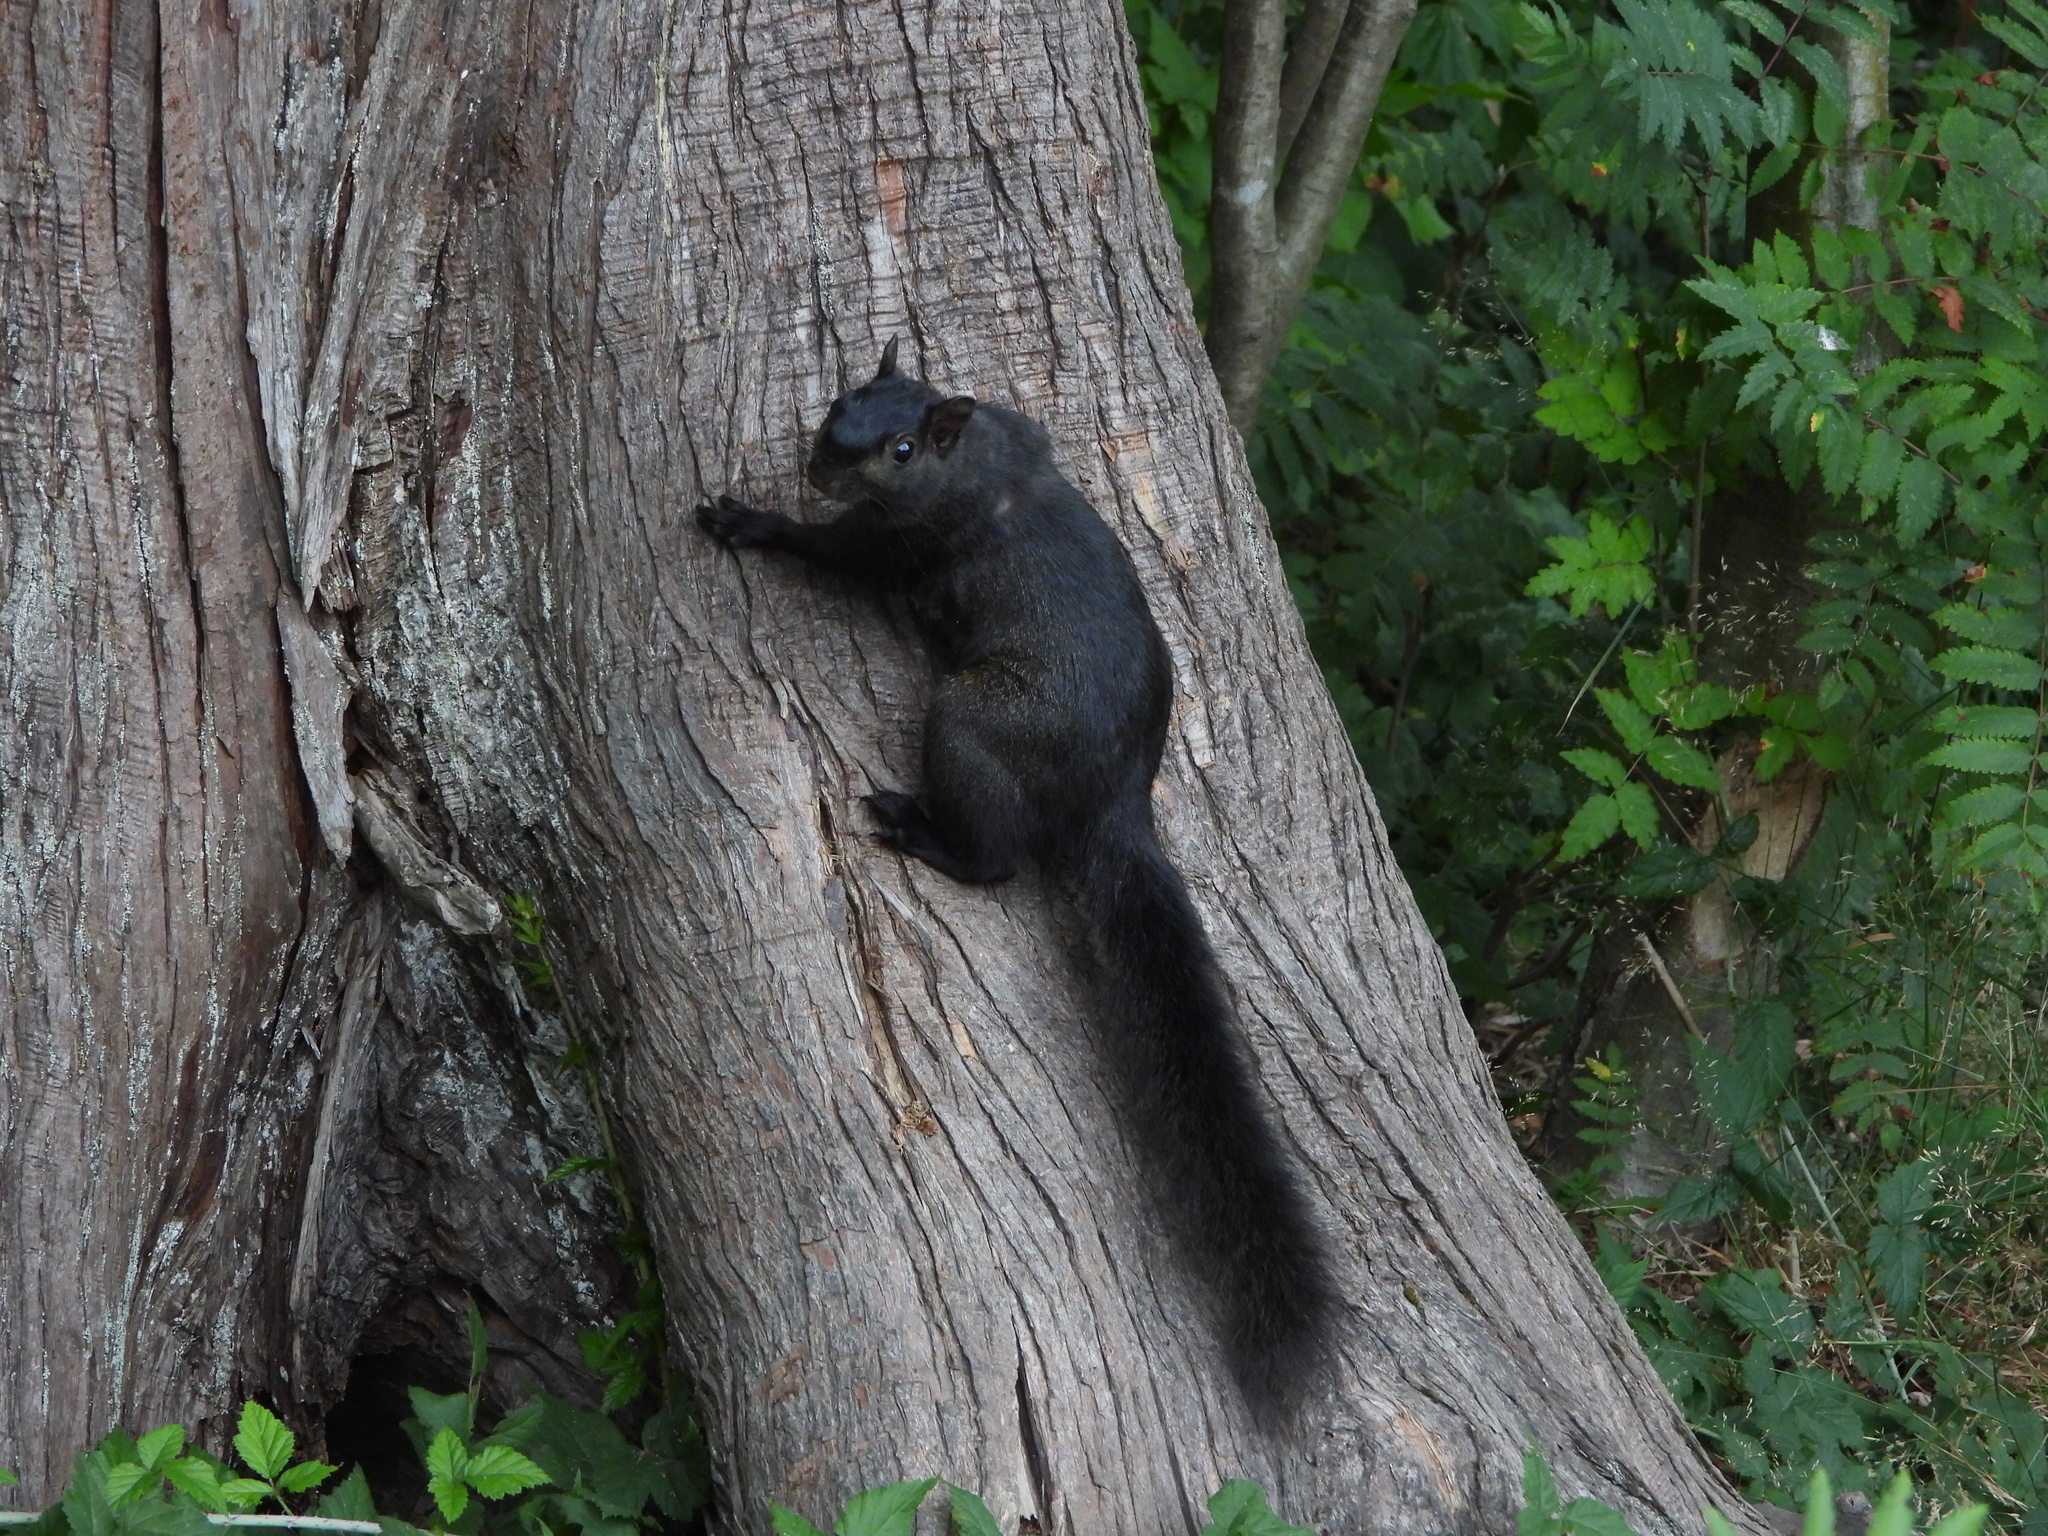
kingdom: Animalia
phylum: Chordata
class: Mammalia
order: Rodentia
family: Sciuridae
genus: Sciurus
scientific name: Sciurus carolinensis
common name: Eastern gray squirrel
